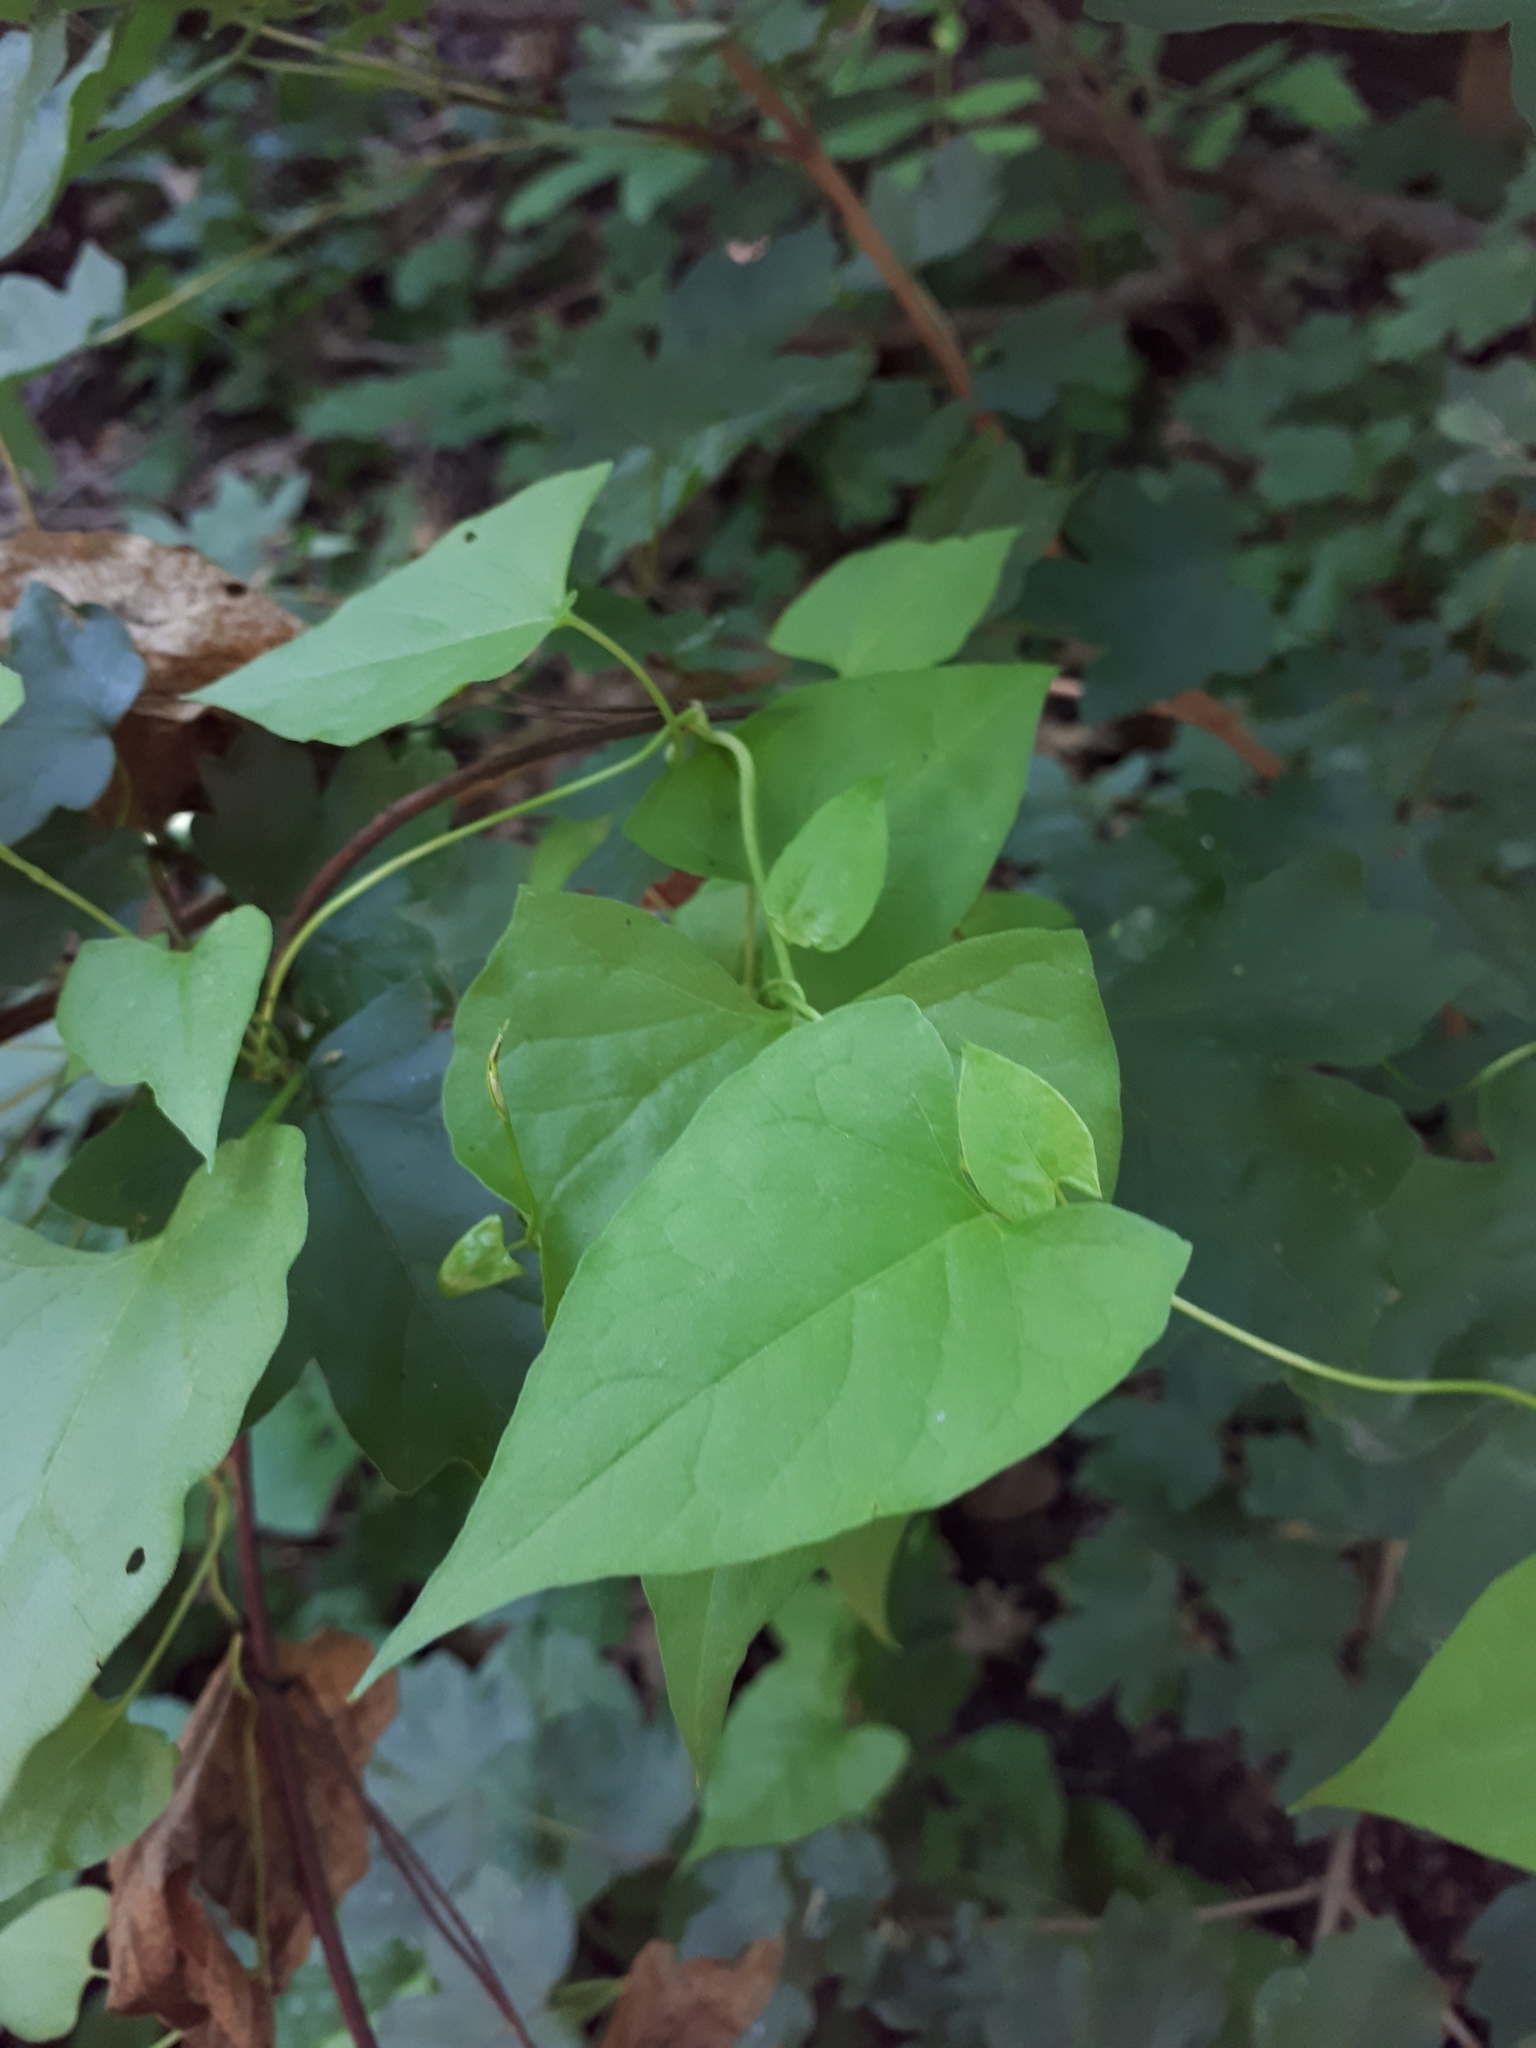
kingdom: Plantae
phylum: Tracheophyta
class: Magnoliopsida
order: Caryophyllales
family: Polygonaceae
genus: Fallopia
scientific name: Fallopia convolvulus
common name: Black bindweed
